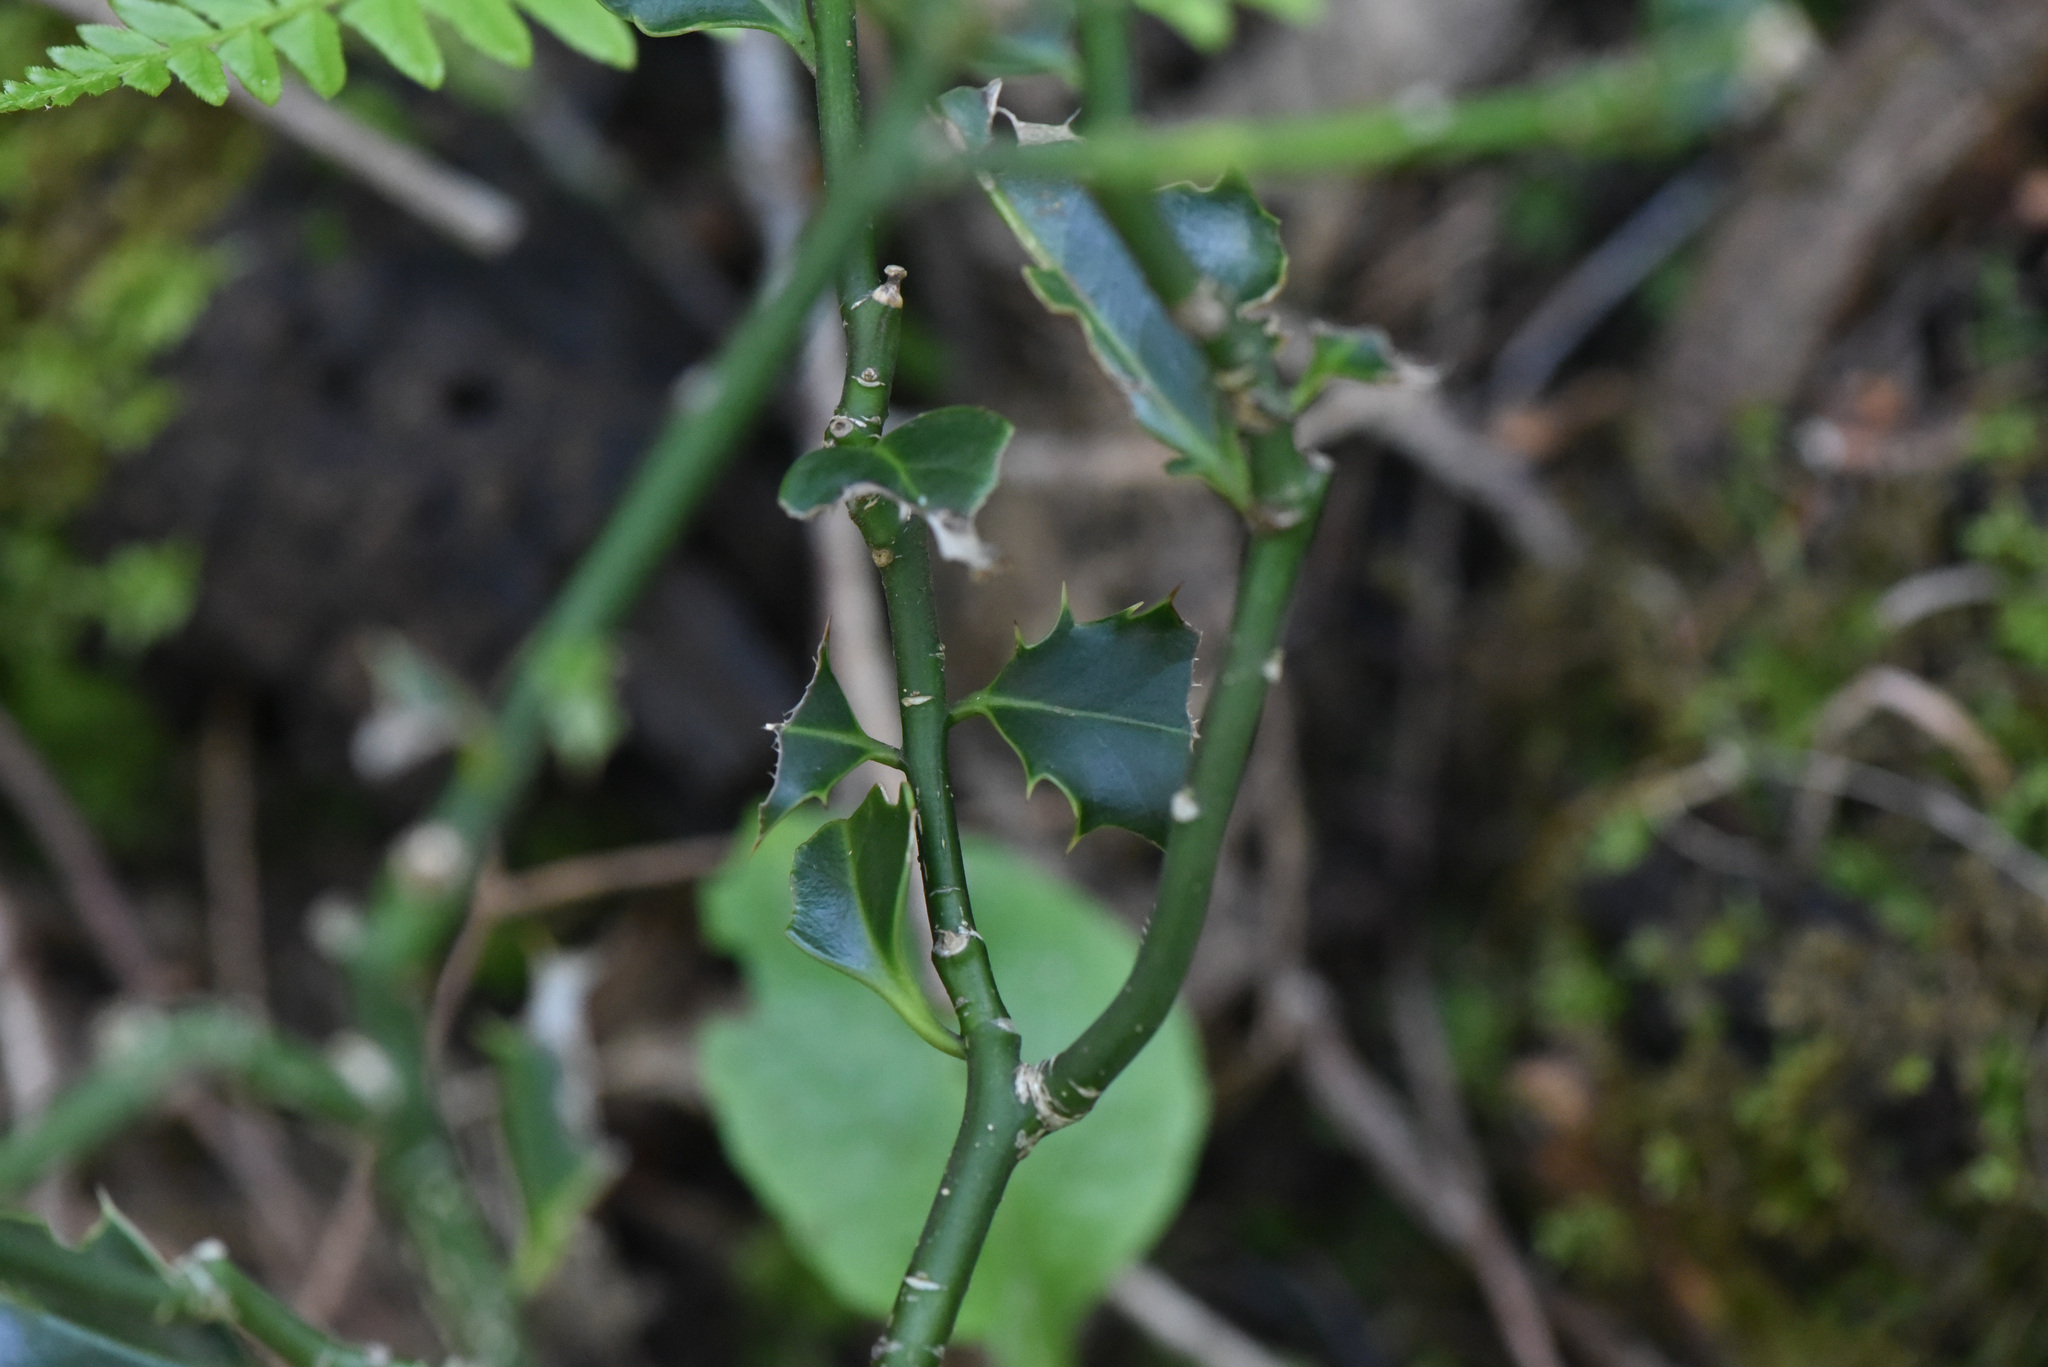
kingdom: Plantae
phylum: Tracheophyta
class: Magnoliopsida
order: Aquifoliales
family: Aquifoliaceae
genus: Ilex
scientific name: Ilex aquifolium
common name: English holly
